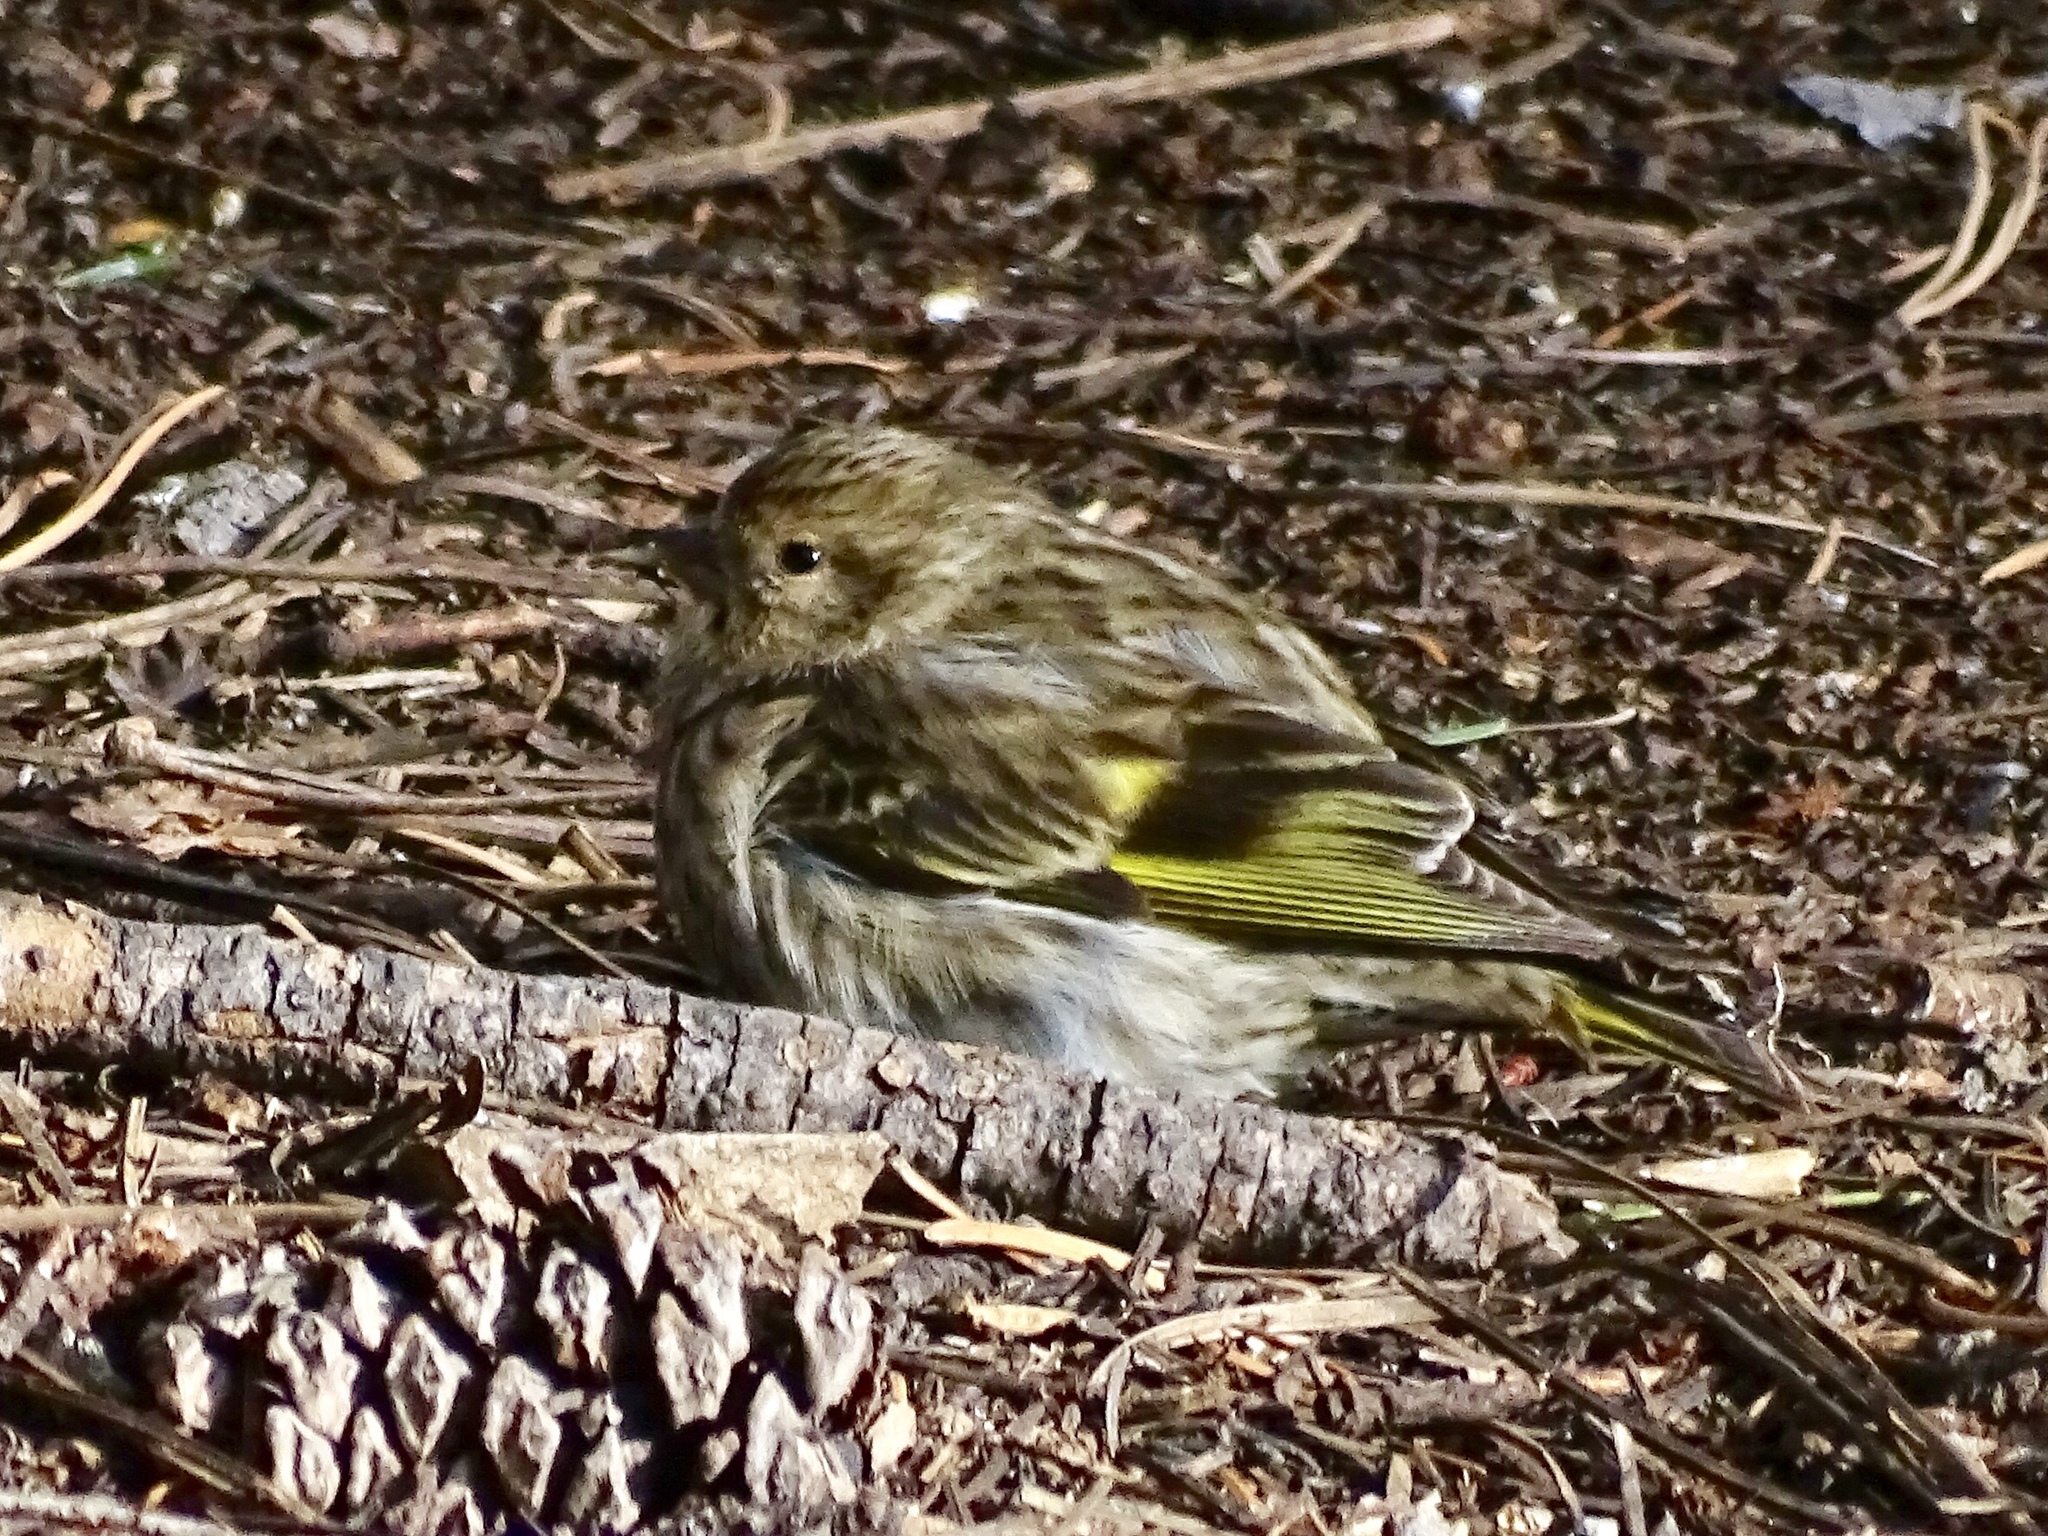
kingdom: Animalia
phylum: Chordata
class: Aves
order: Passeriformes
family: Fringillidae
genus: Spinus
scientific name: Spinus pinus
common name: Pine siskin
